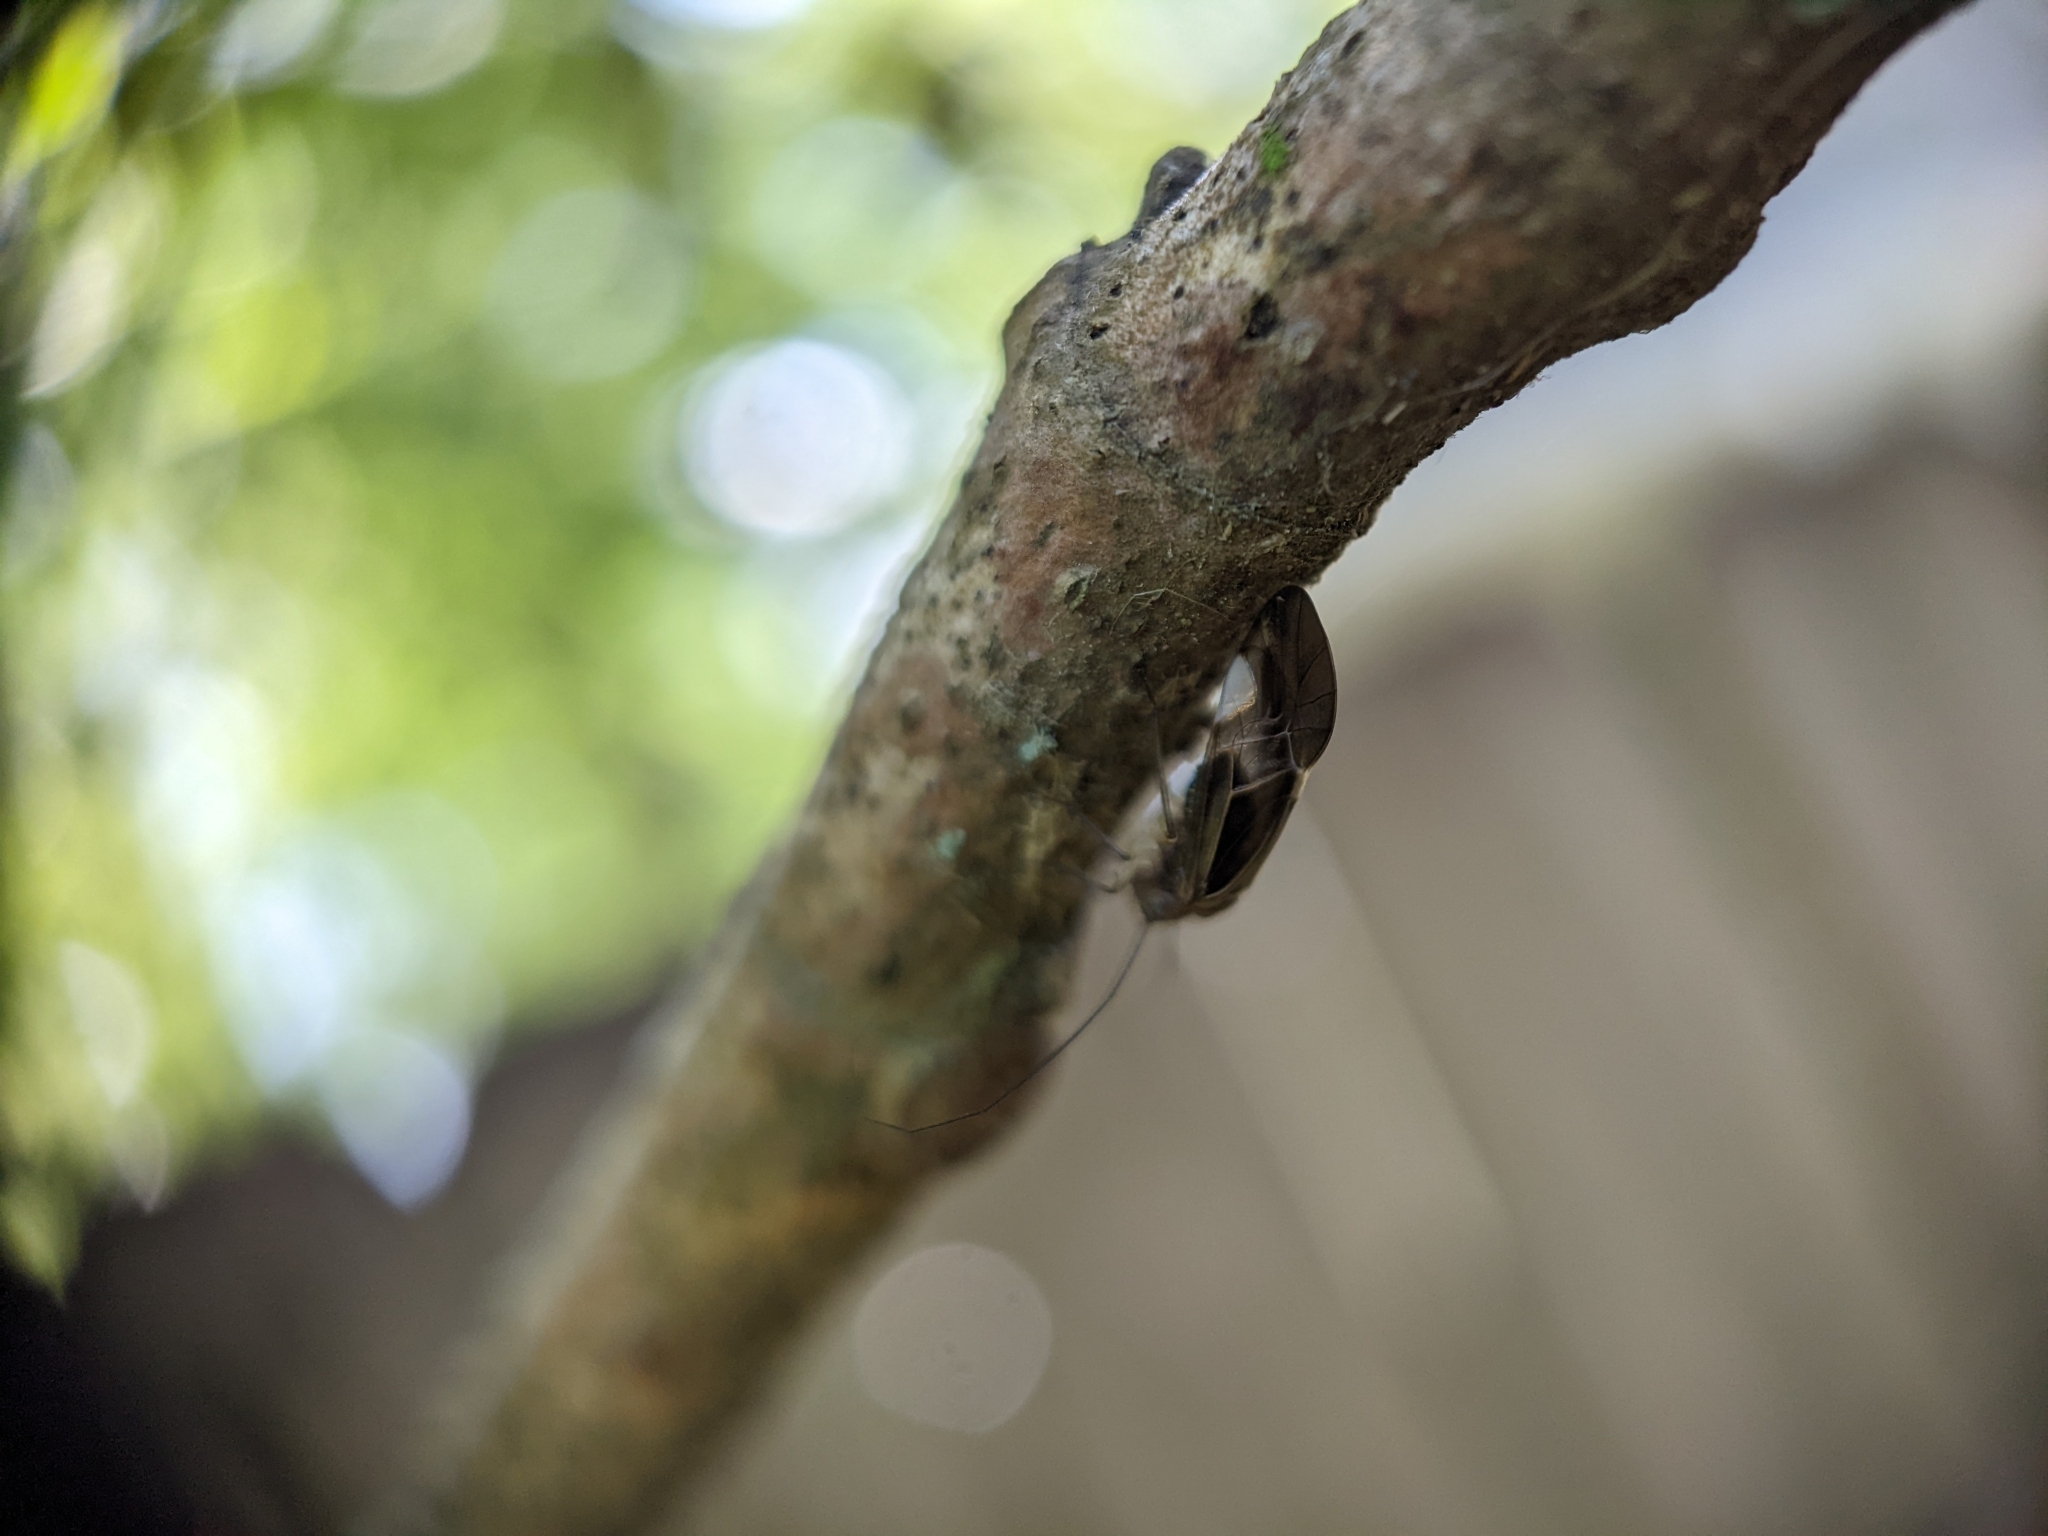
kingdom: Animalia
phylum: Arthropoda
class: Insecta
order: Psocodea
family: Psocidae
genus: Cerastipsocus
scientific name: Cerastipsocus venosus
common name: Tree cattle
